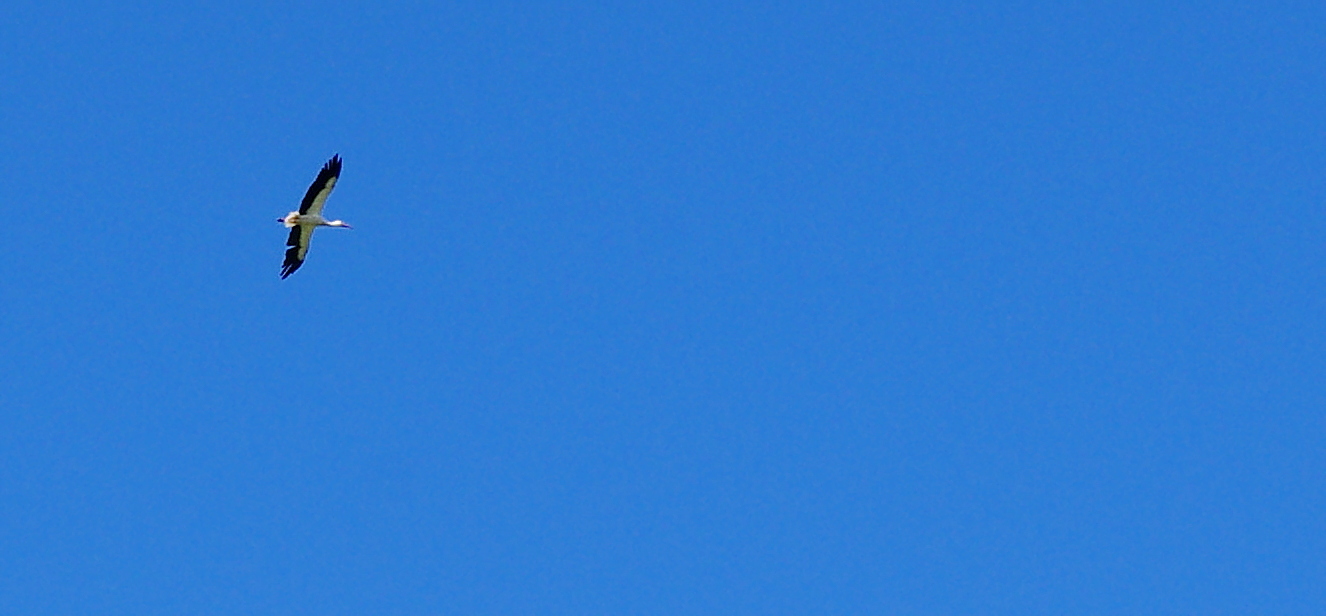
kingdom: Animalia
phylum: Chordata
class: Aves
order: Ciconiiformes
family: Ciconiidae
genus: Ciconia
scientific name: Ciconia ciconia
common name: White stork
